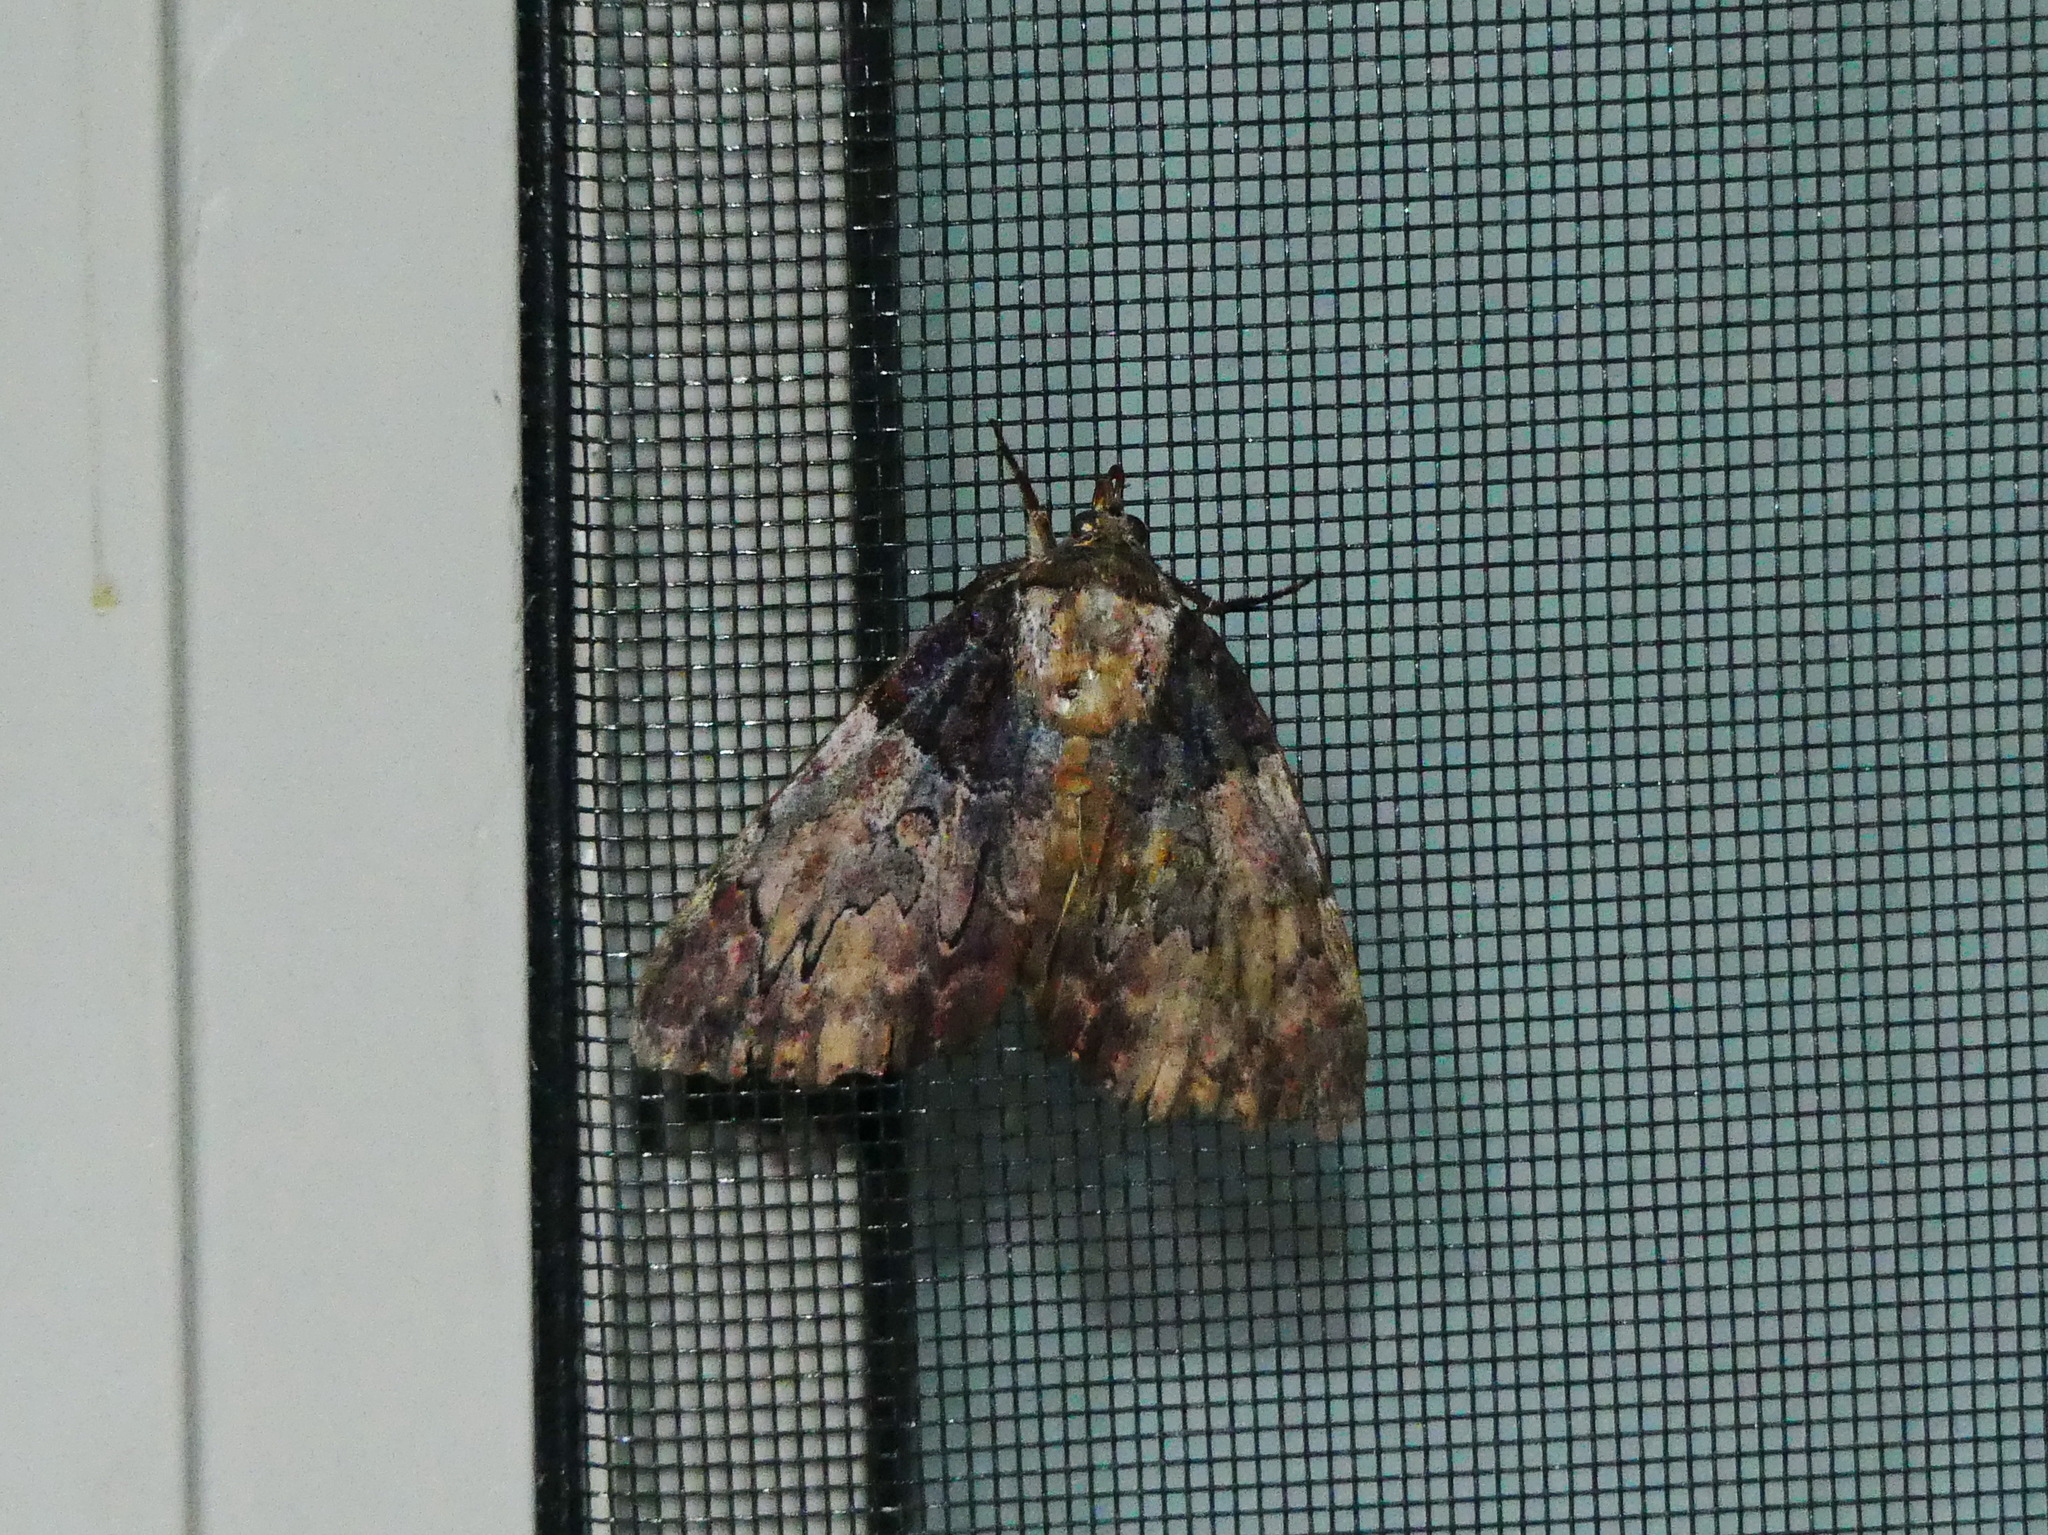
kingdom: Animalia
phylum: Arthropoda
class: Insecta
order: Lepidoptera
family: Erebidae
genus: Catocala
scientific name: Catocala nebulosa
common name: Clouded underwing
